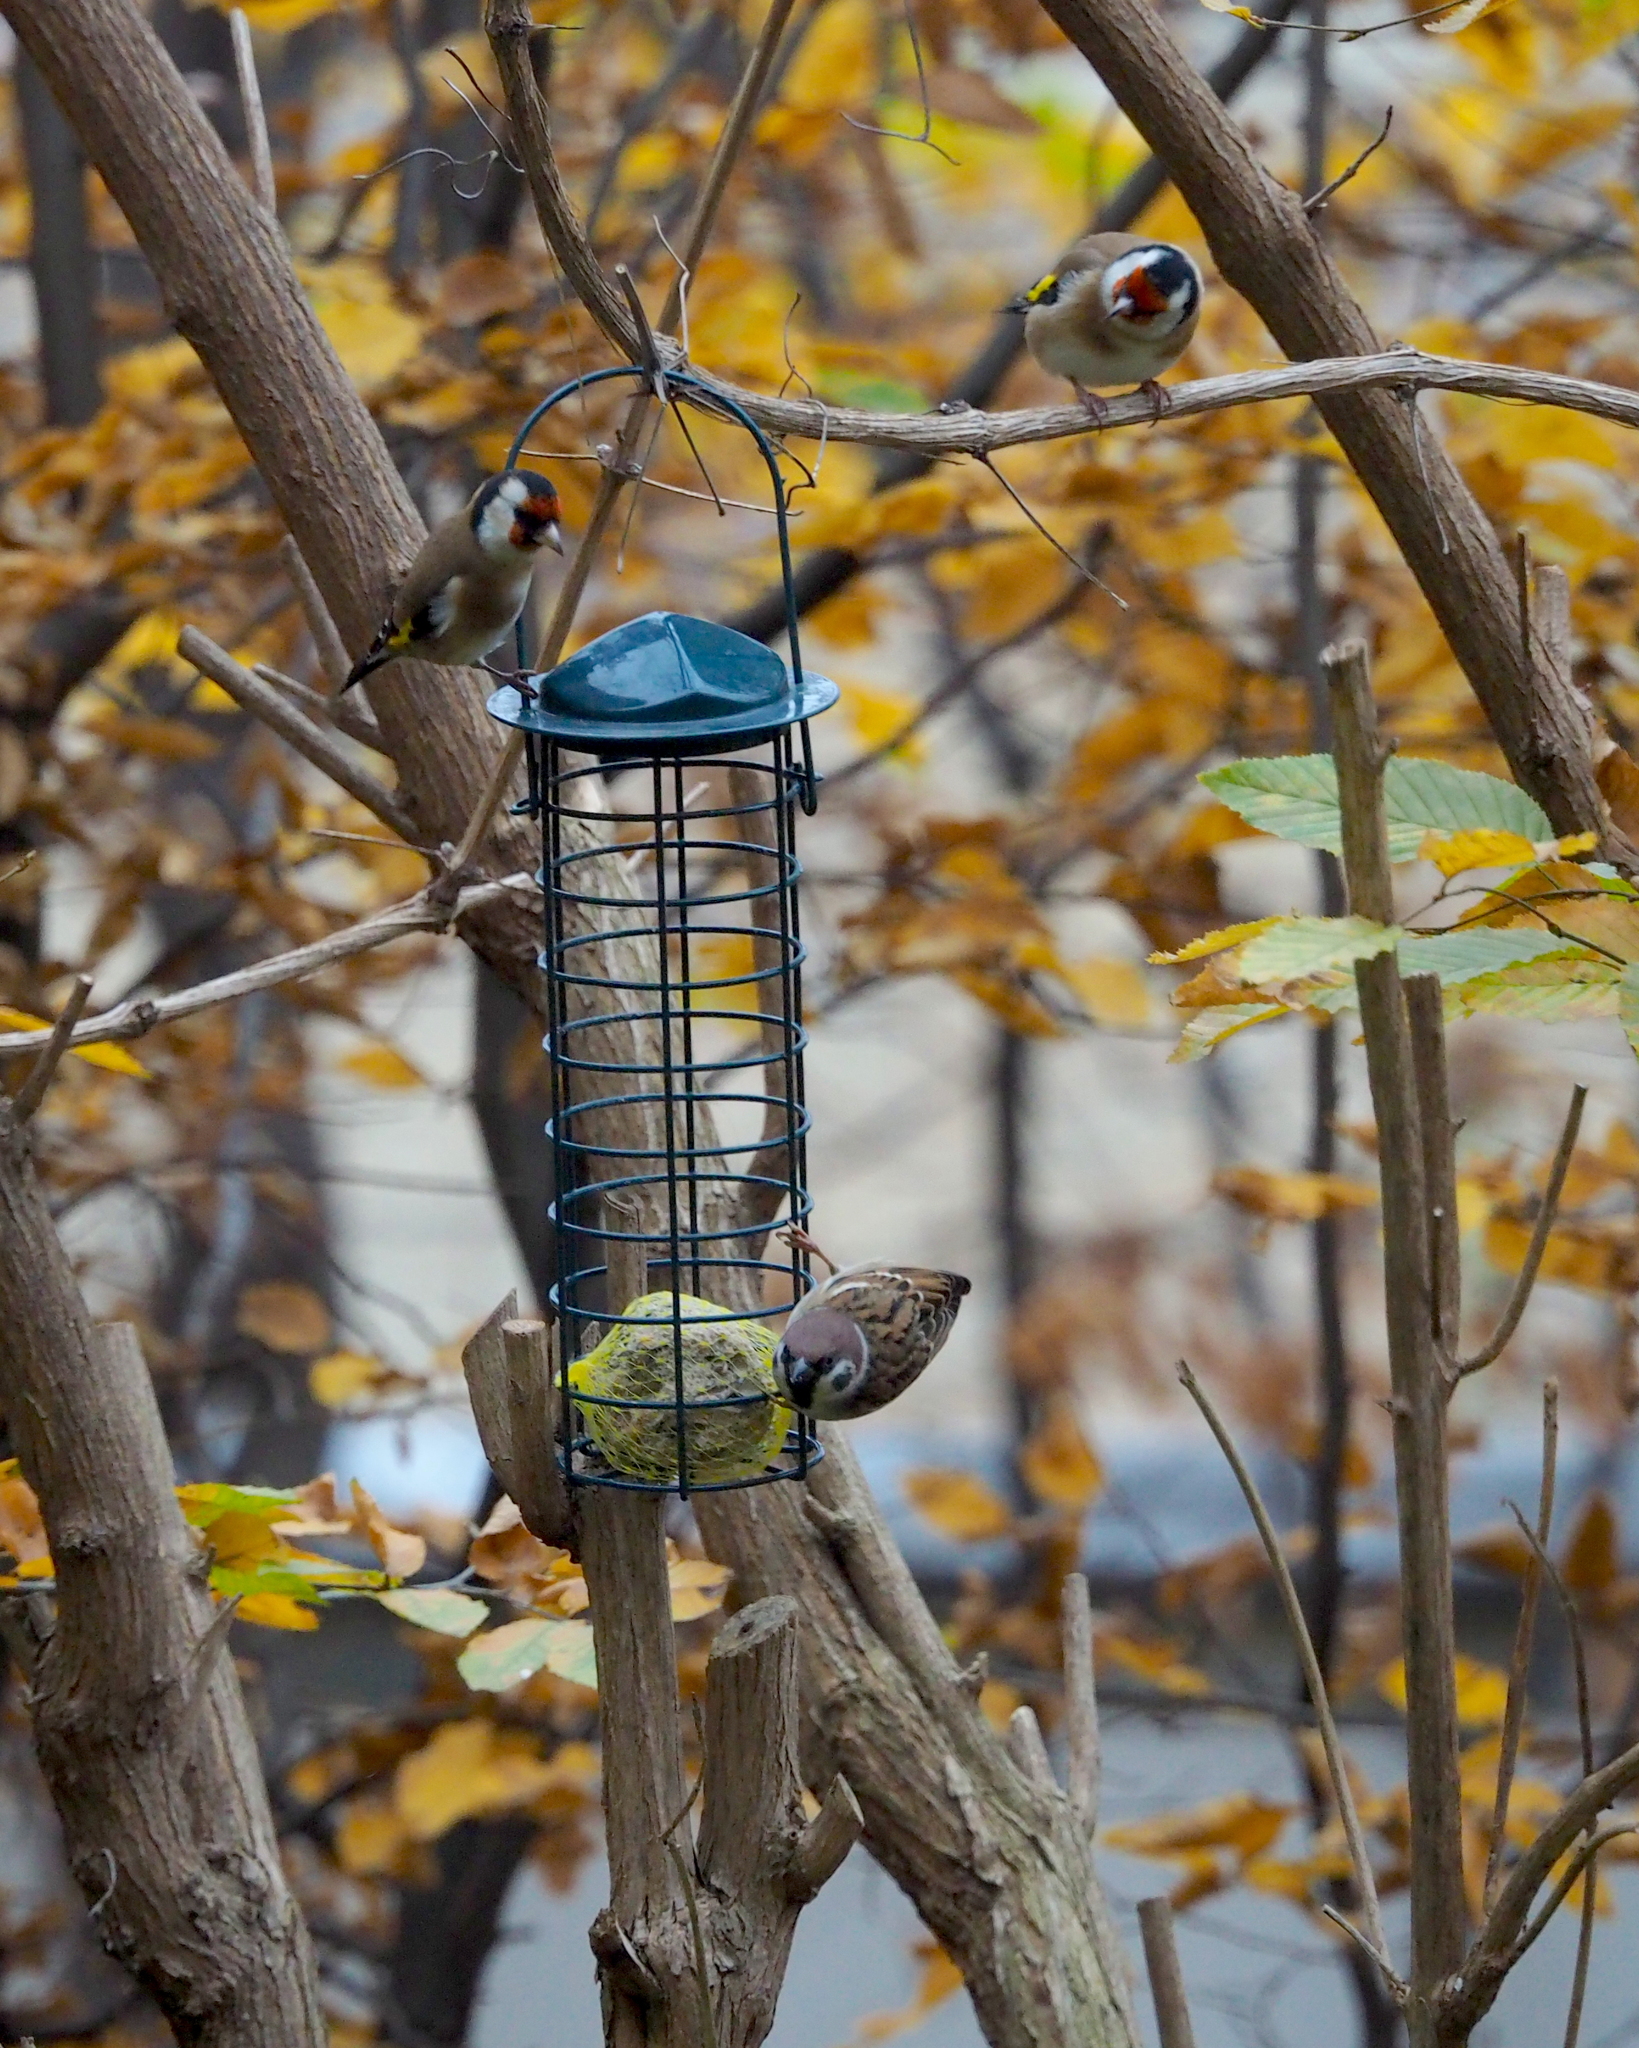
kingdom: Animalia
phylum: Chordata
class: Aves
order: Passeriformes
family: Passeridae
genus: Passer
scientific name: Passer montanus
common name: Eurasian tree sparrow
